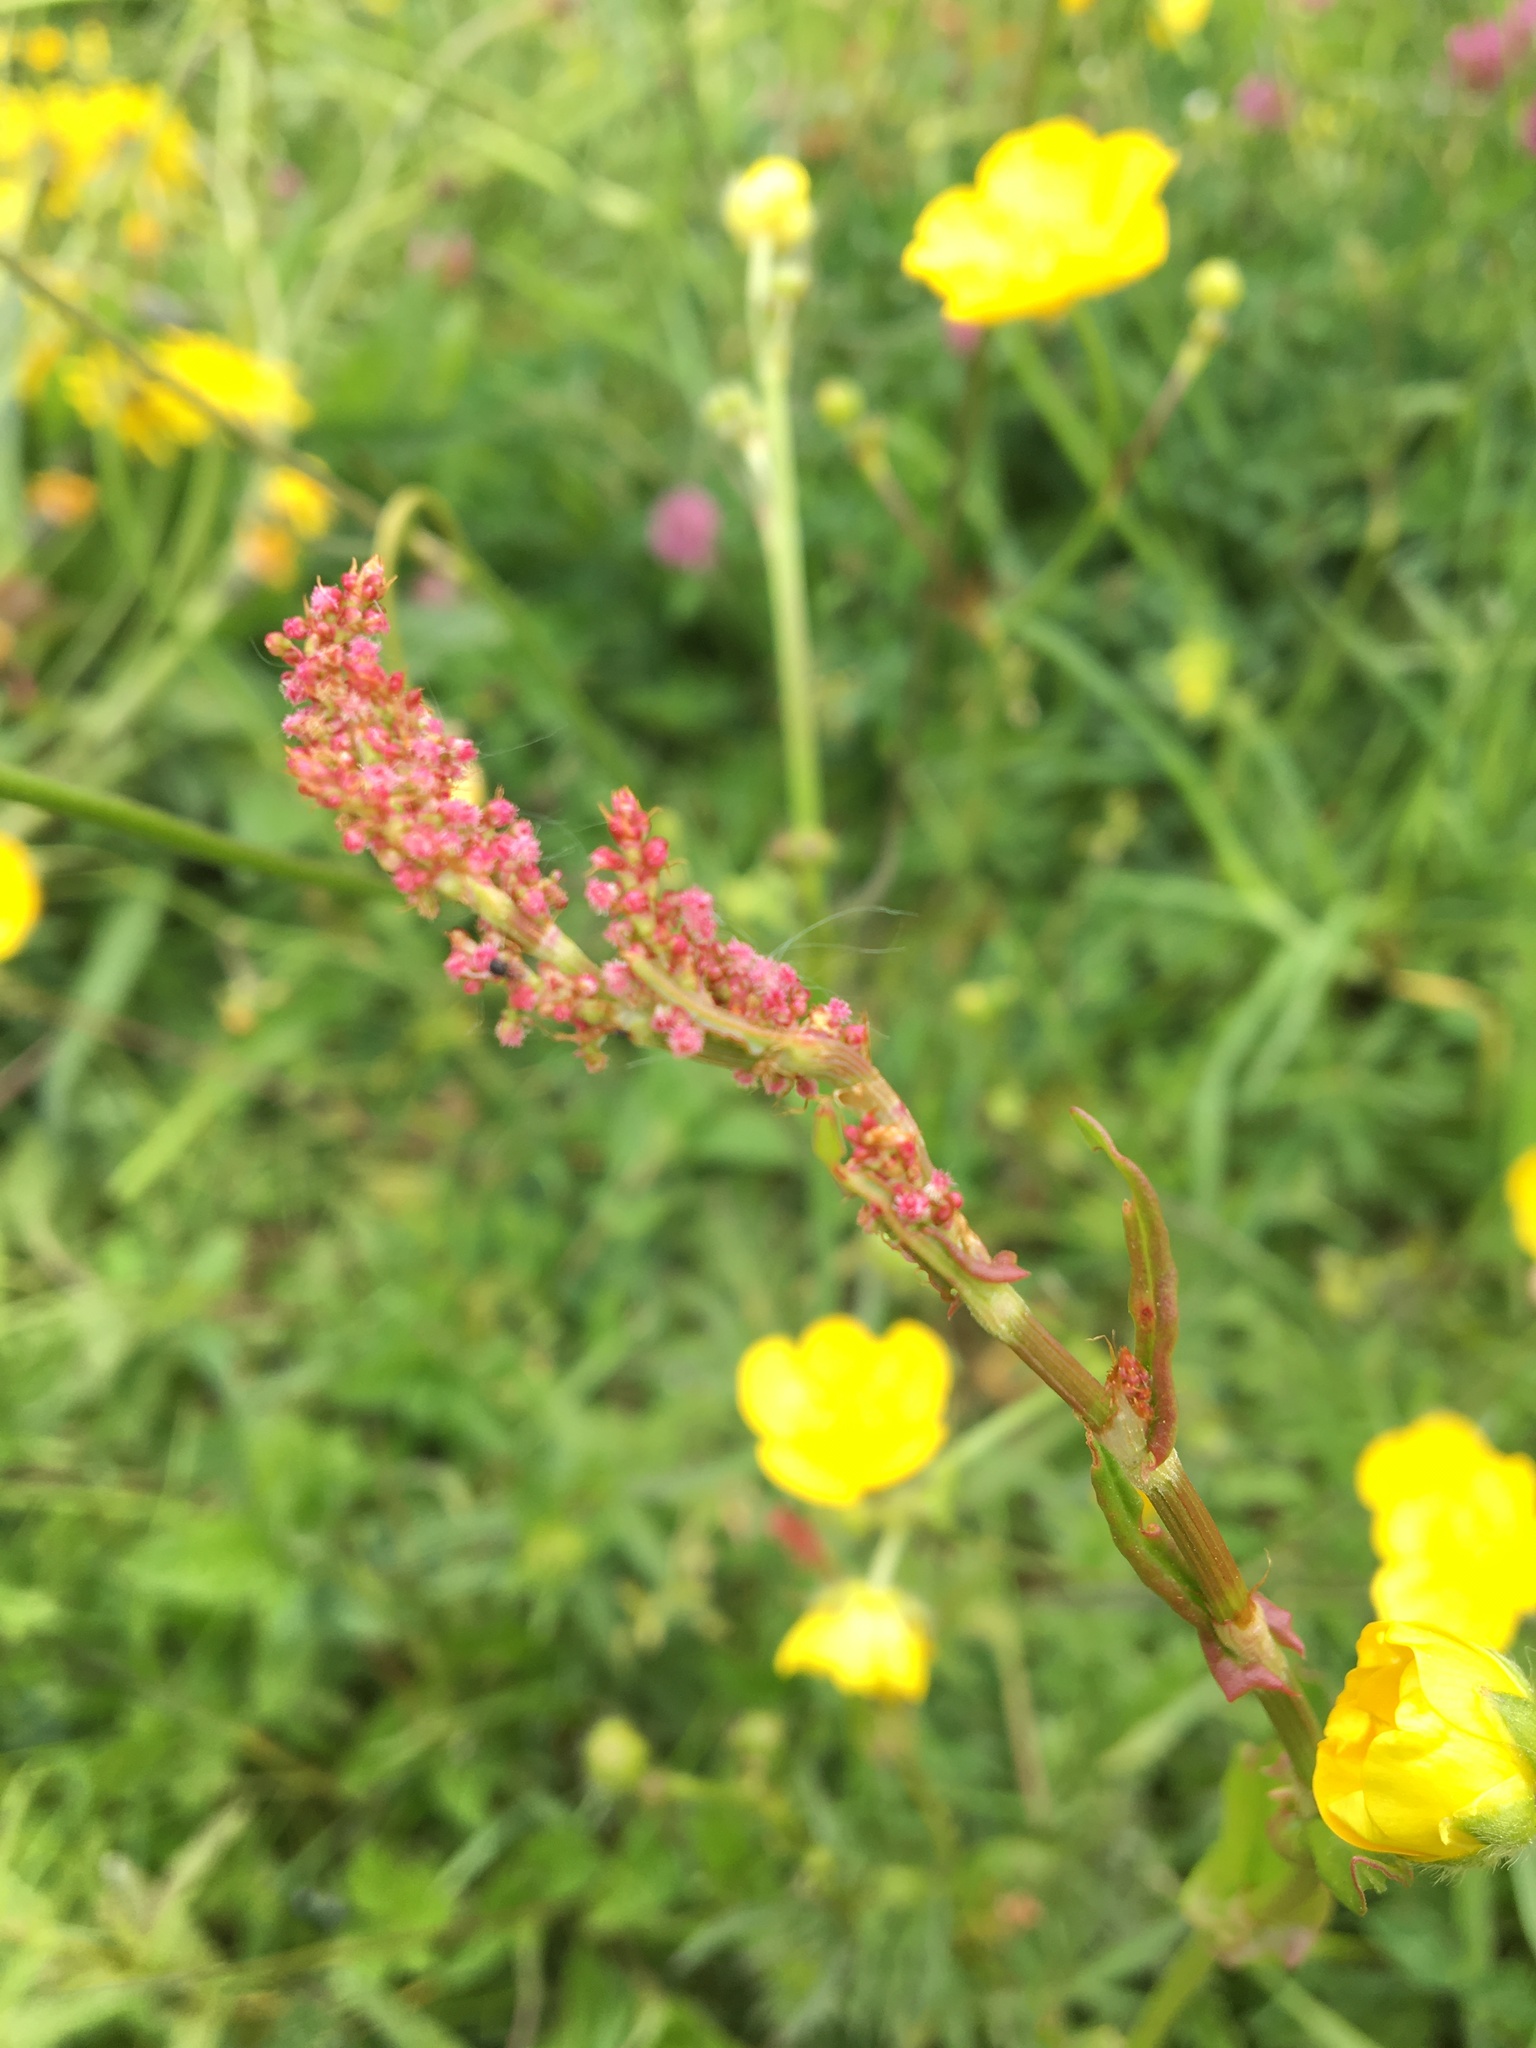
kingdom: Plantae
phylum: Tracheophyta
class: Magnoliopsida
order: Caryophyllales
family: Polygonaceae
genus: Rumex
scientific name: Rumex acetosa
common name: Garden sorrel
